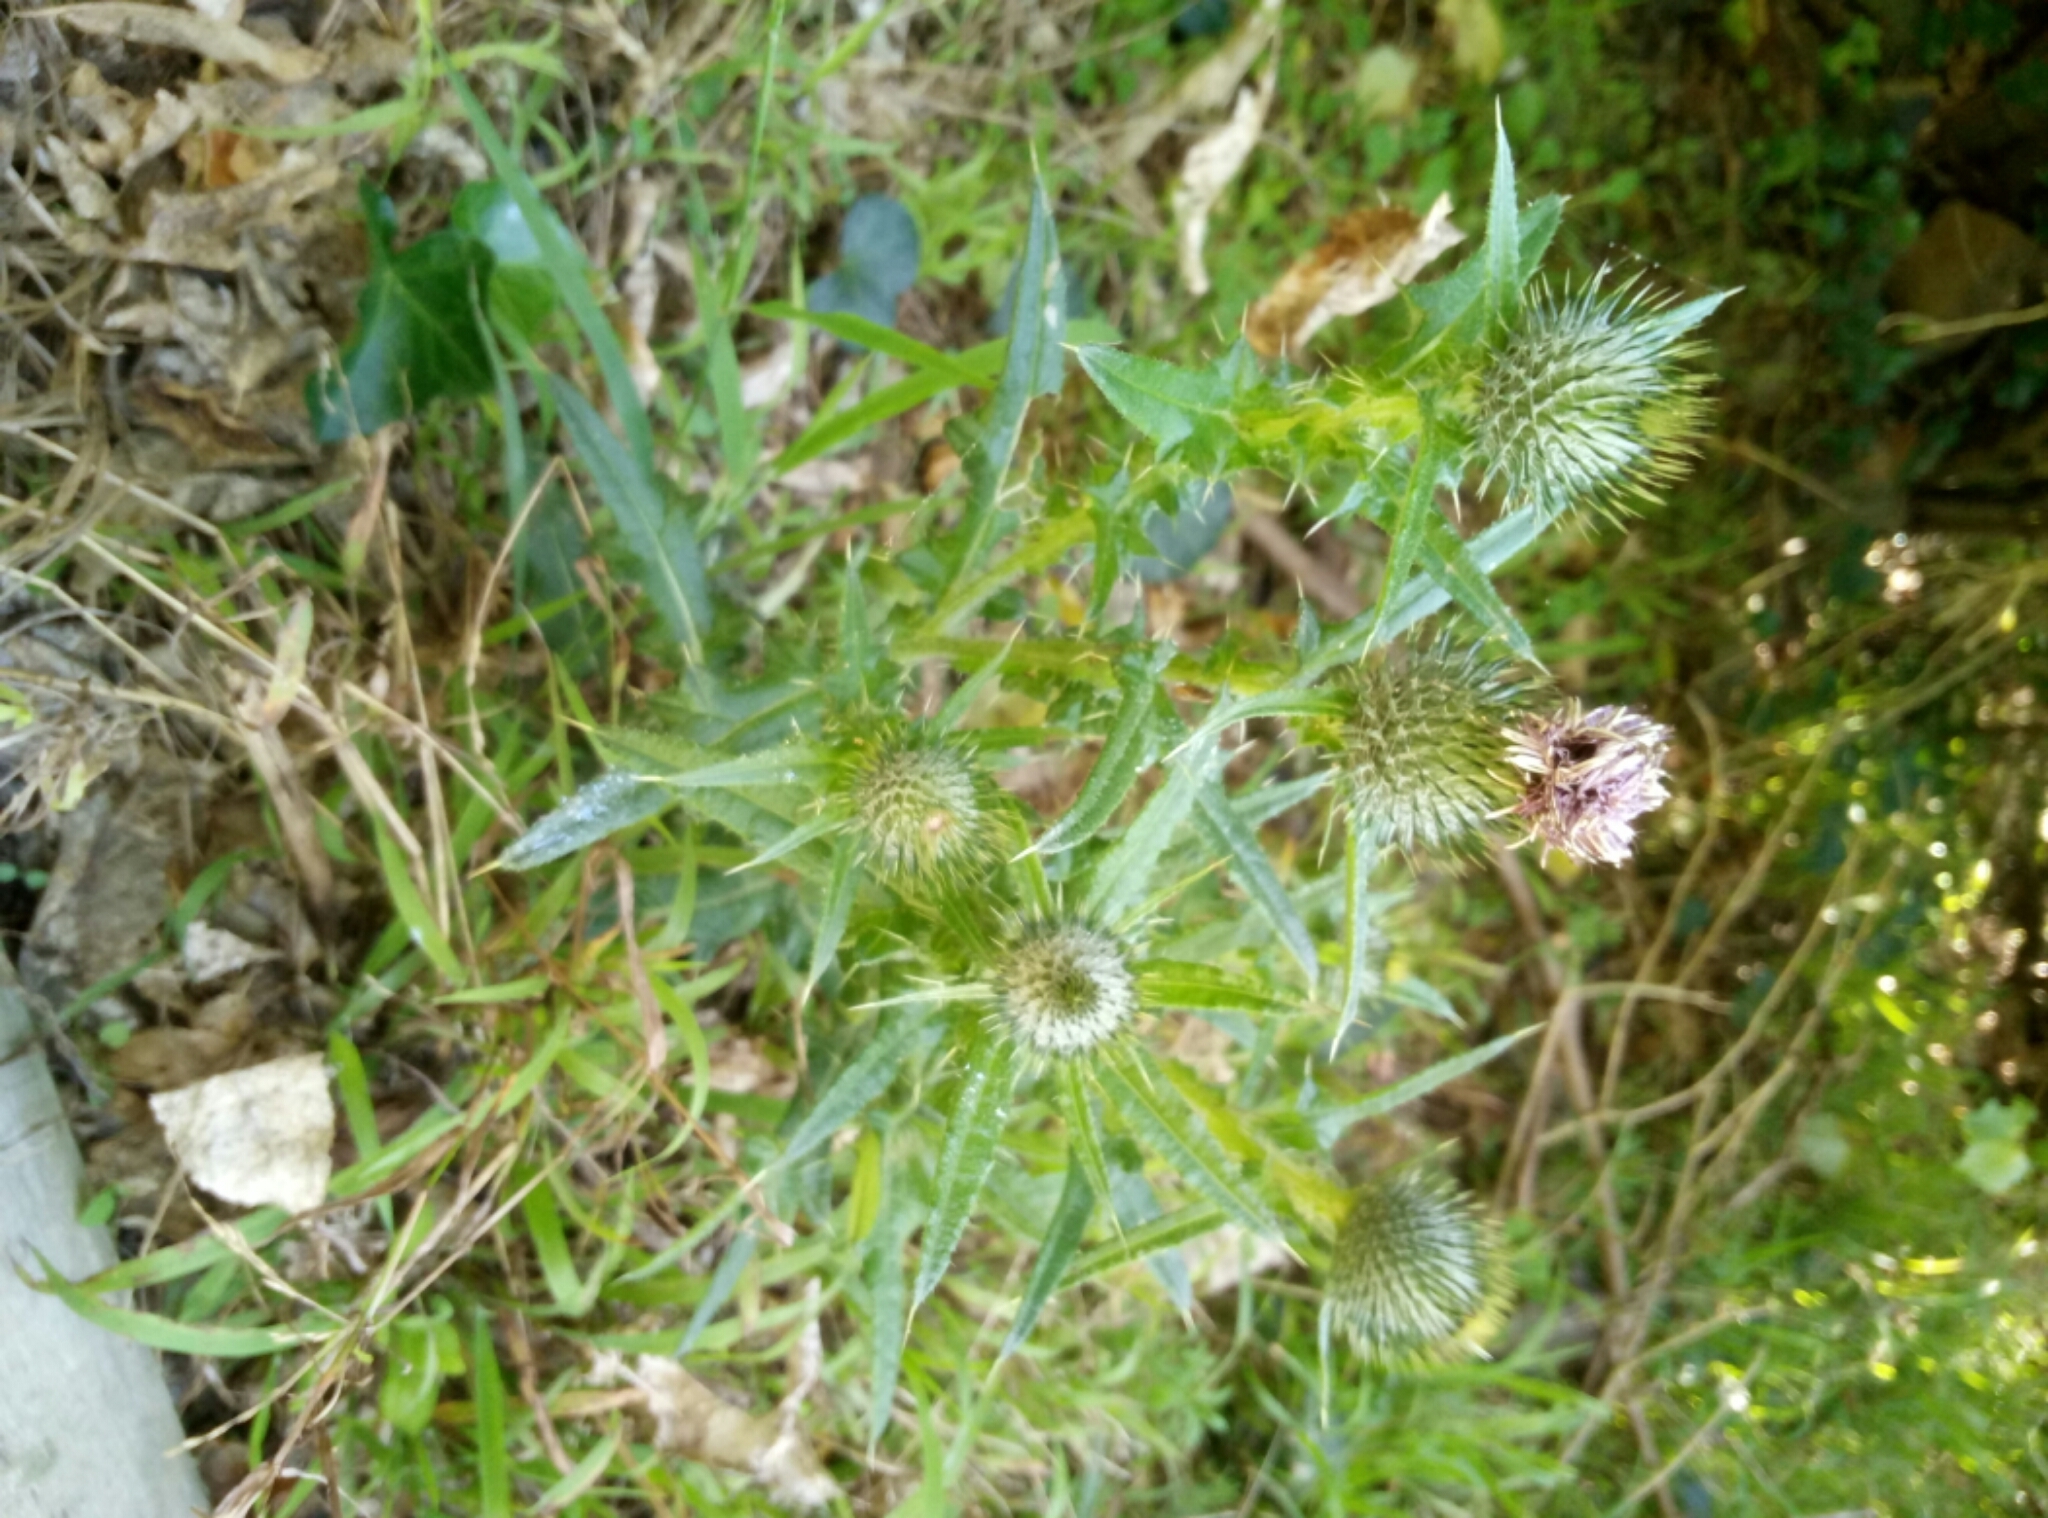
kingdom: Plantae
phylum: Tracheophyta
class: Magnoliopsida
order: Asterales
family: Asteraceae
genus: Cirsium
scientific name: Cirsium vulgare
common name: Bull thistle
